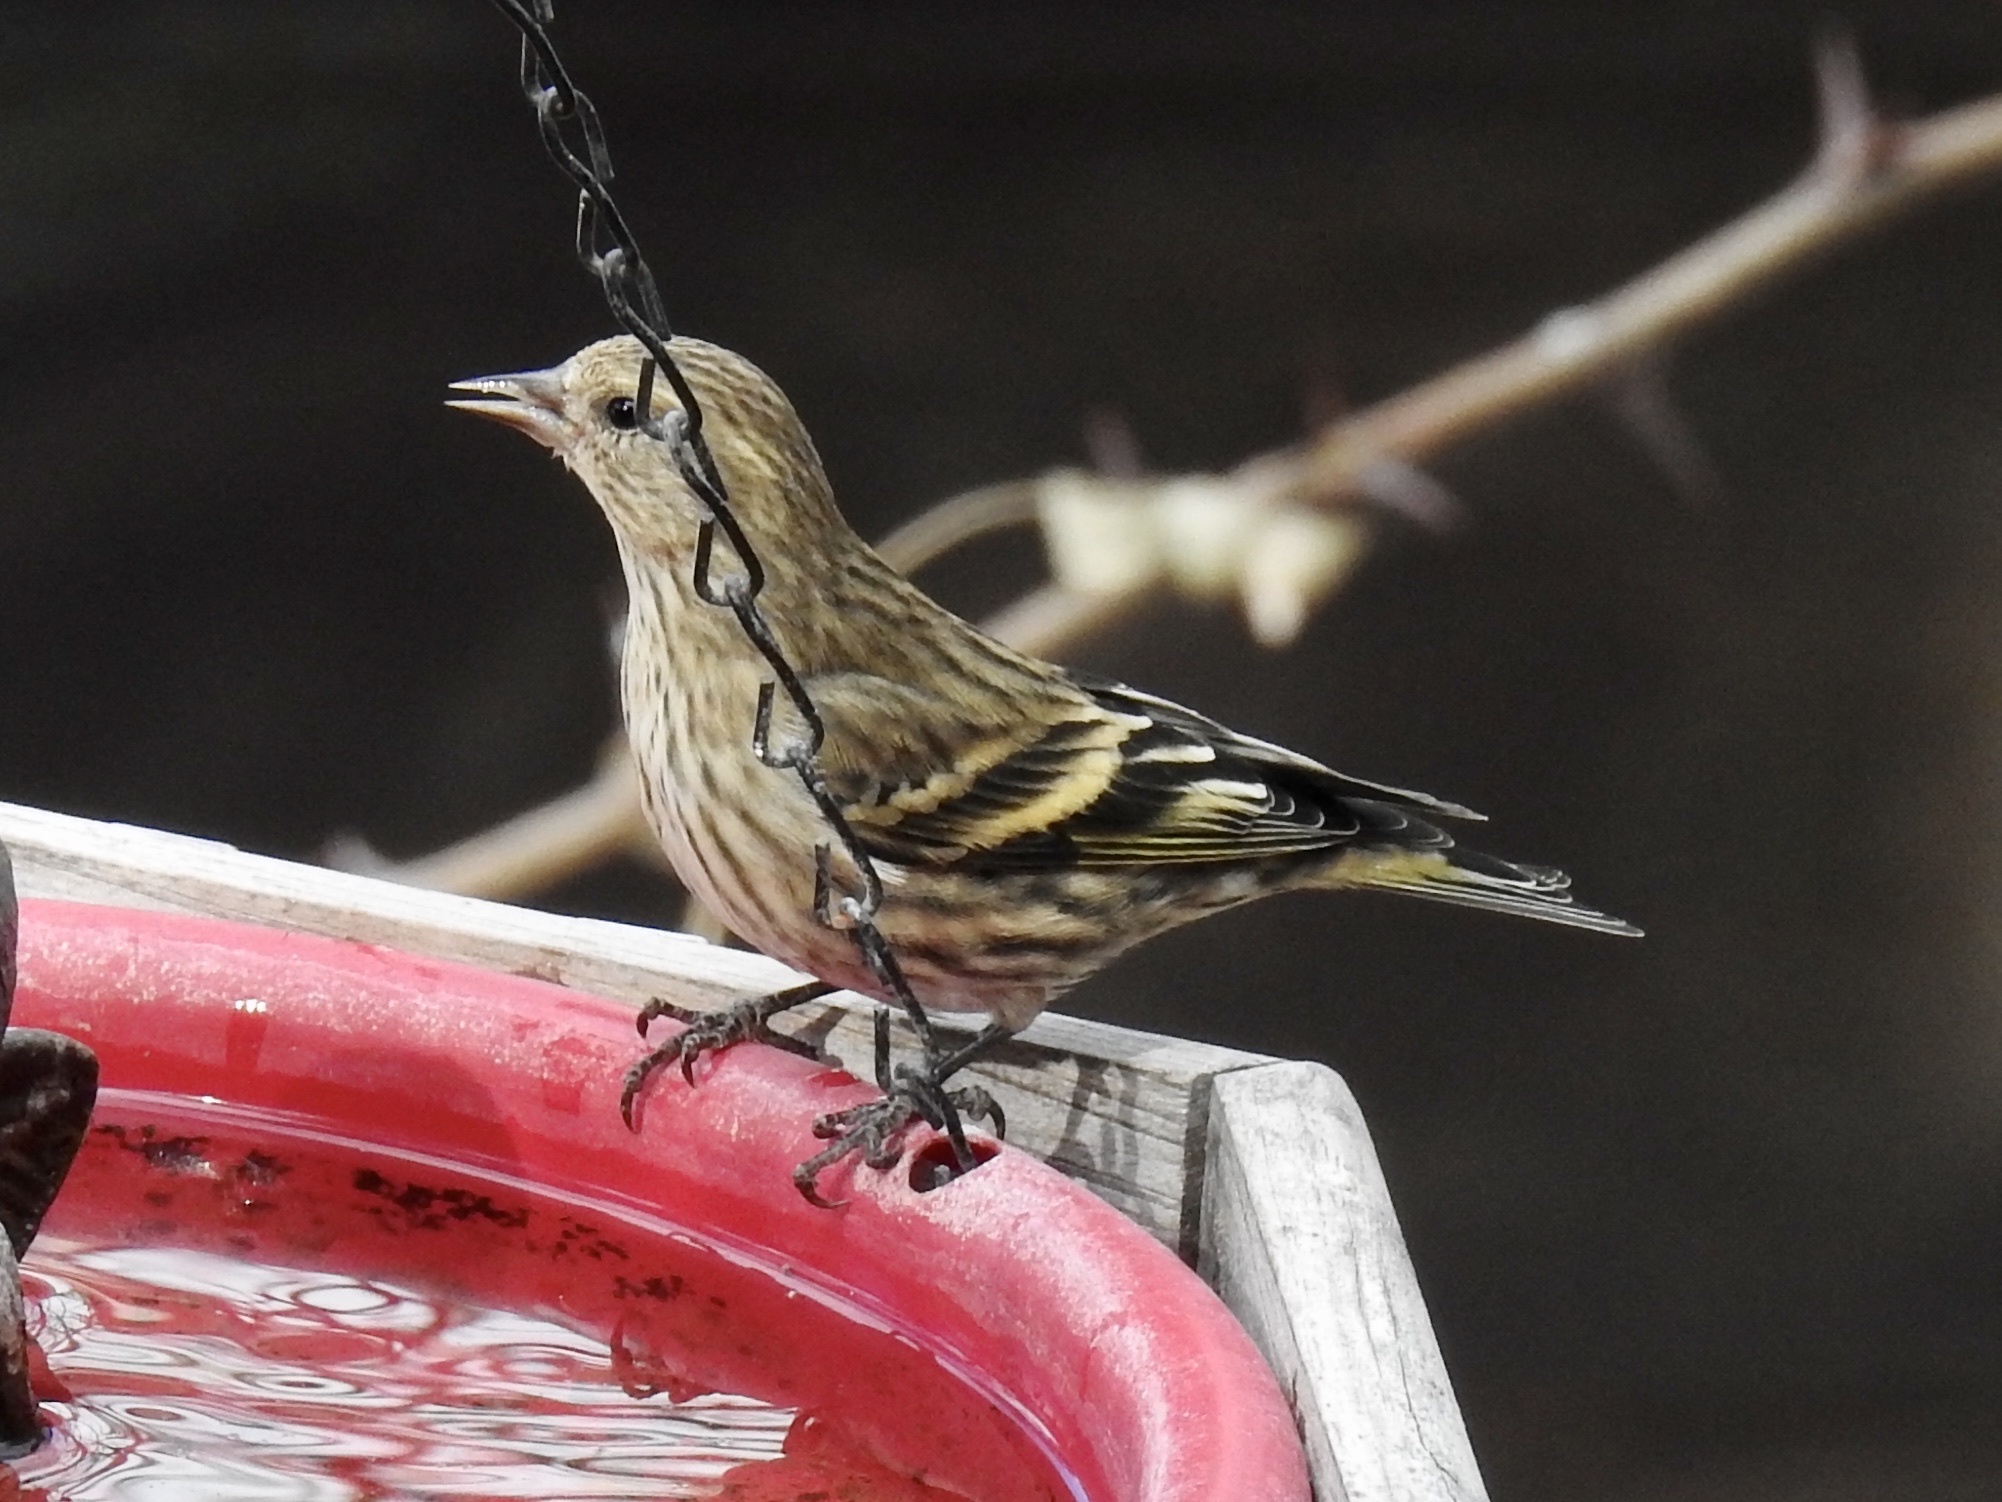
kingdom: Animalia
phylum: Chordata
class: Aves
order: Passeriformes
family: Fringillidae
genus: Spinus
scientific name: Spinus pinus
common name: Pine siskin
